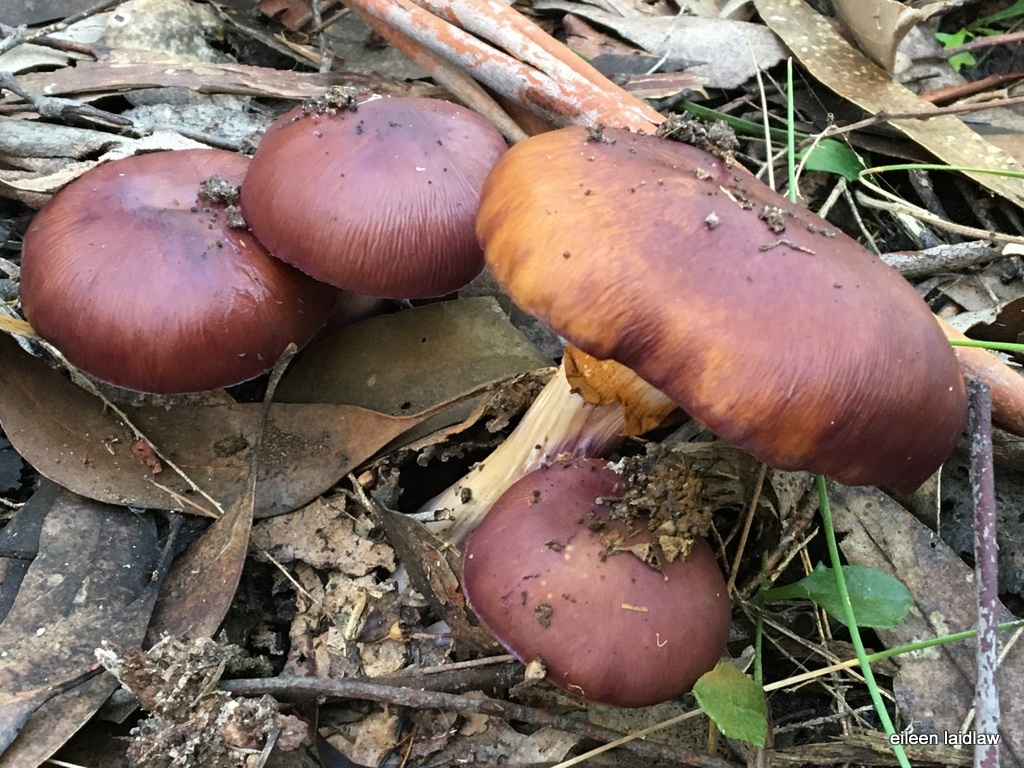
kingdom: Fungi
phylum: Basidiomycota
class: Agaricomycetes
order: Agaricales
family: Cortinariaceae
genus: Cortinarius
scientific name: Cortinarius archeri
